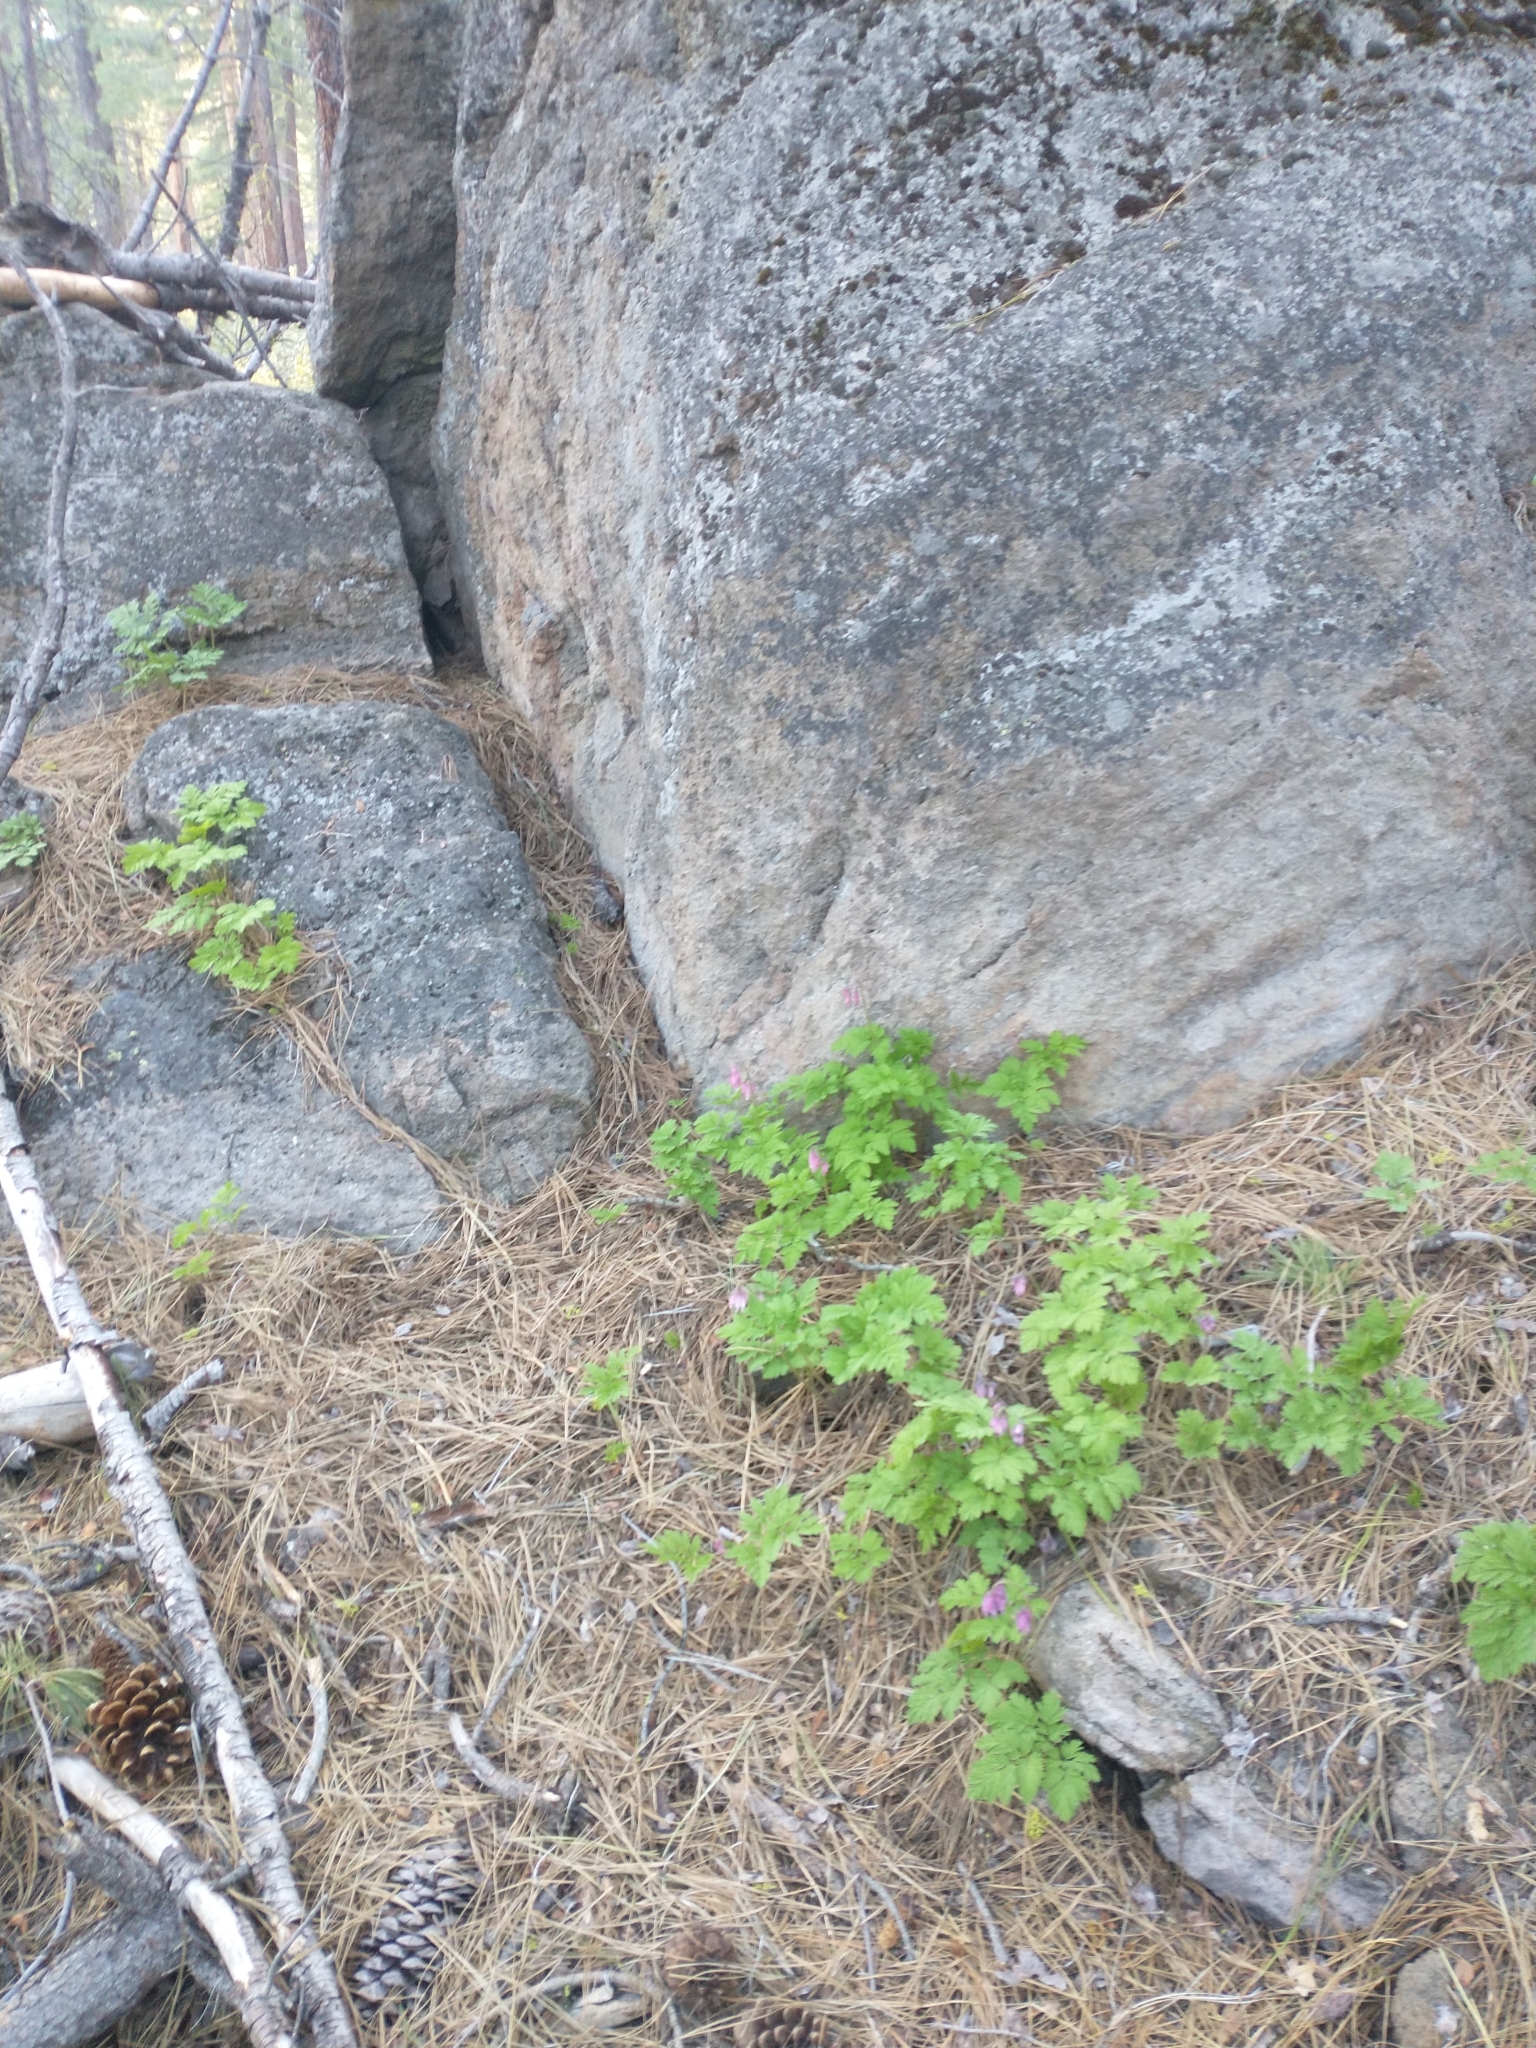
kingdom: Plantae
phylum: Tracheophyta
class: Magnoliopsida
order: Ranunculales
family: Papaveraceae
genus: Dicentra
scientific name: Dicentra formosa
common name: Bleeding-heart
